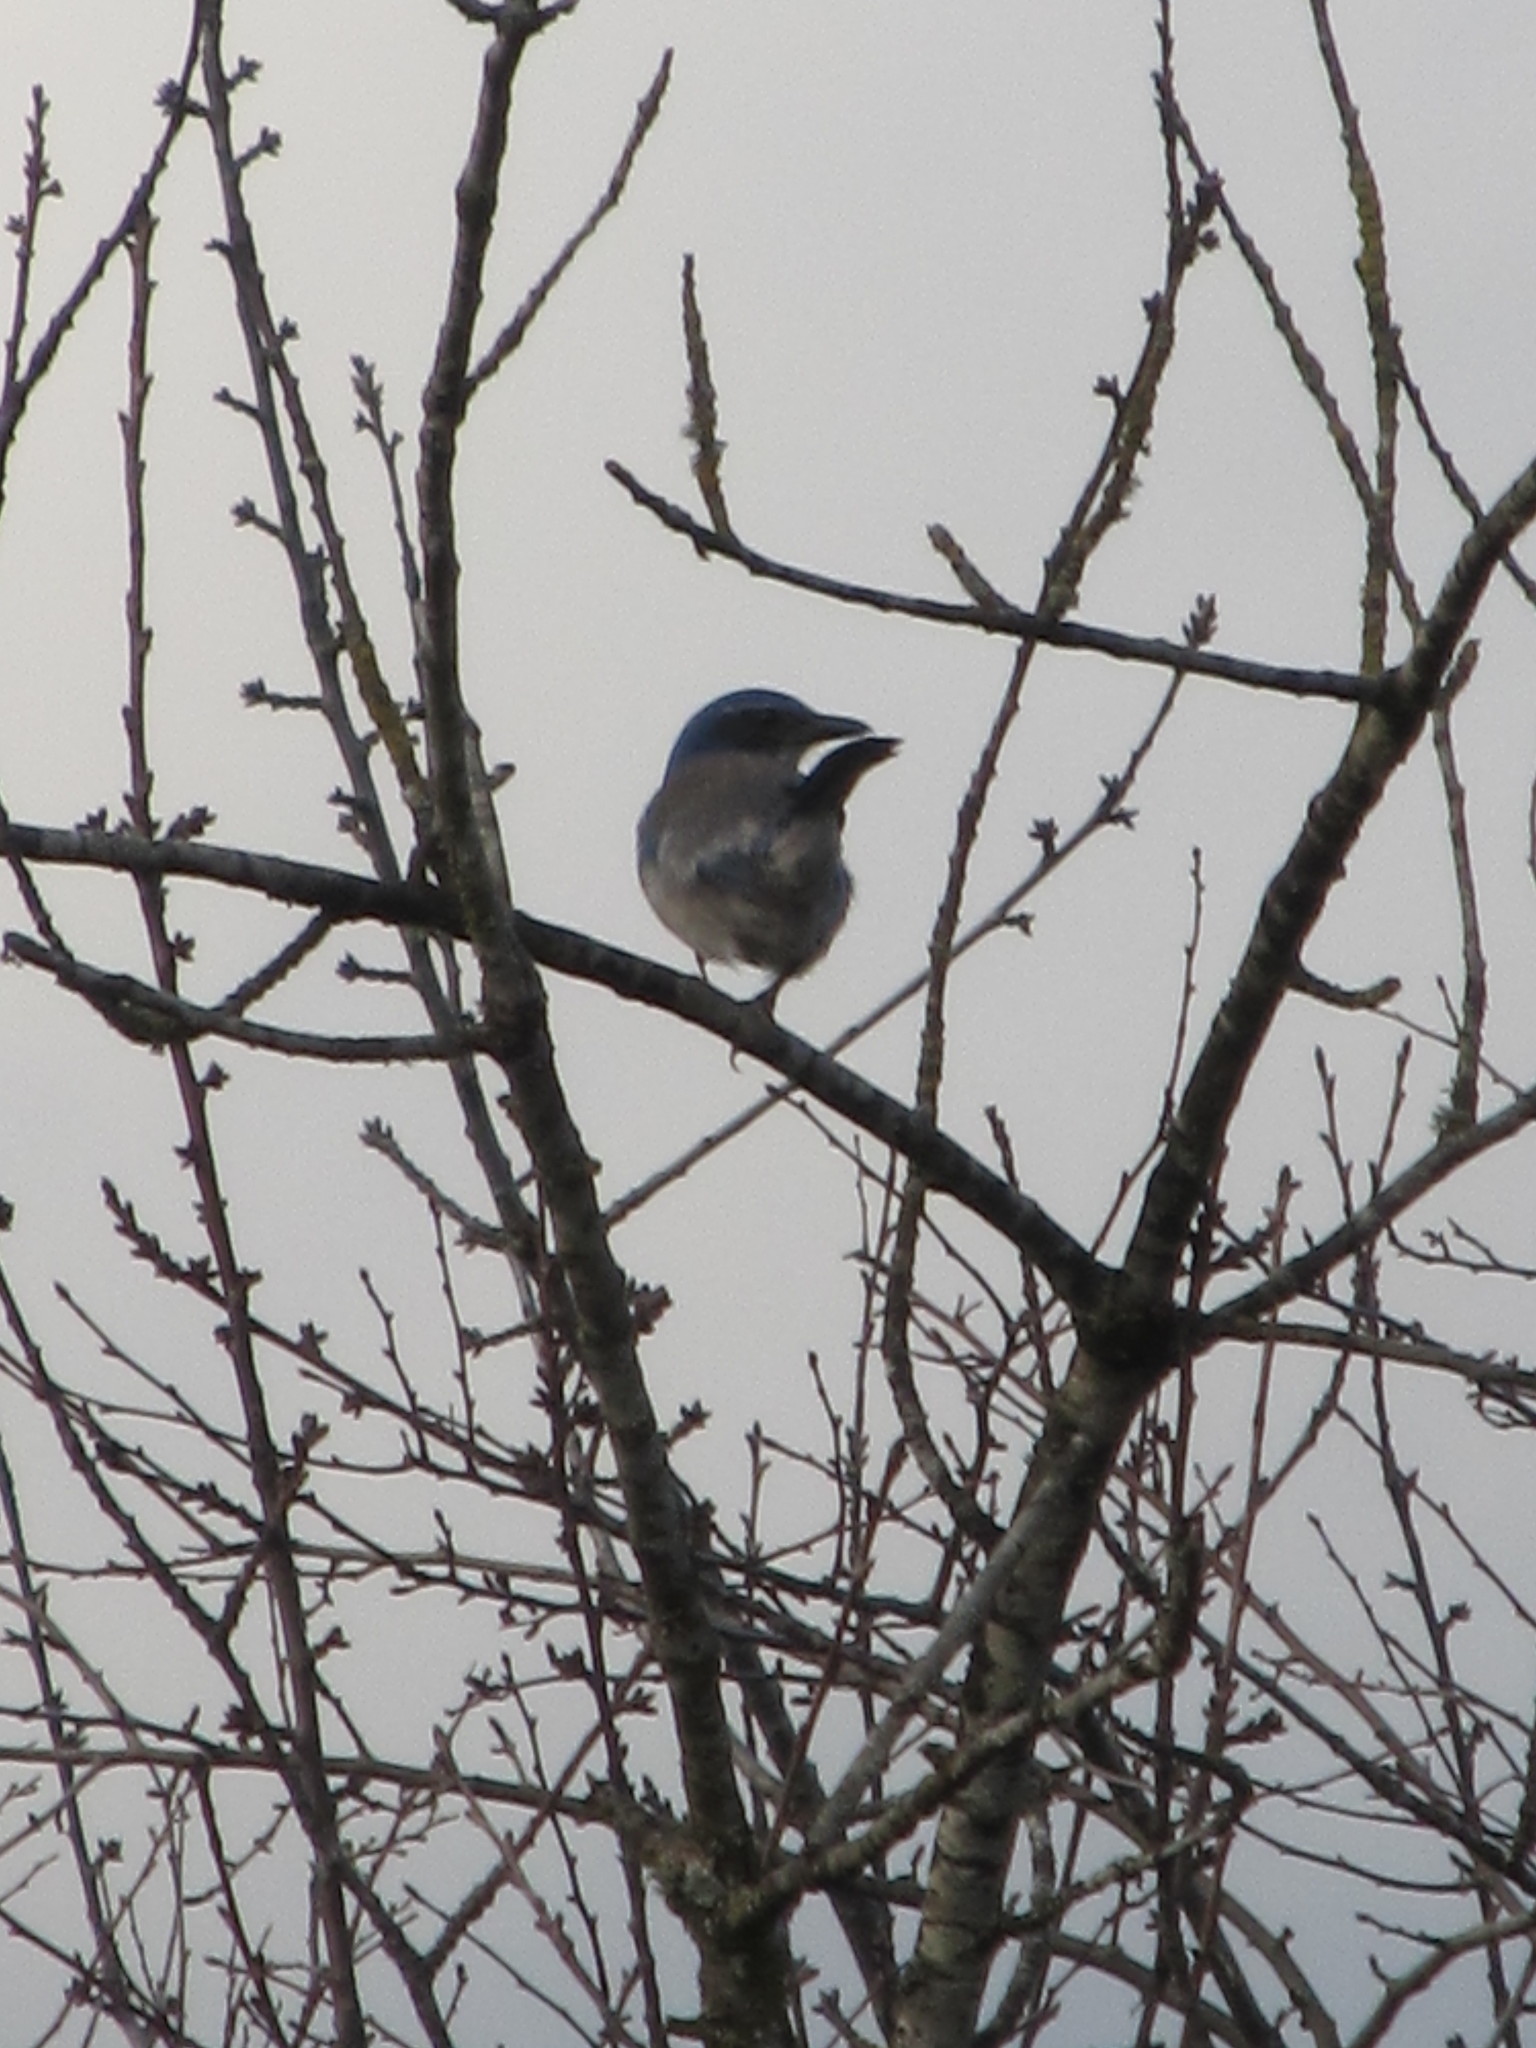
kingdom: Animalia
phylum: Chordata
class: Aves
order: Passeriformes
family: Corvidae
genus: Aphelocoma
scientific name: Aphelocoma californica
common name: California scrub-jay
